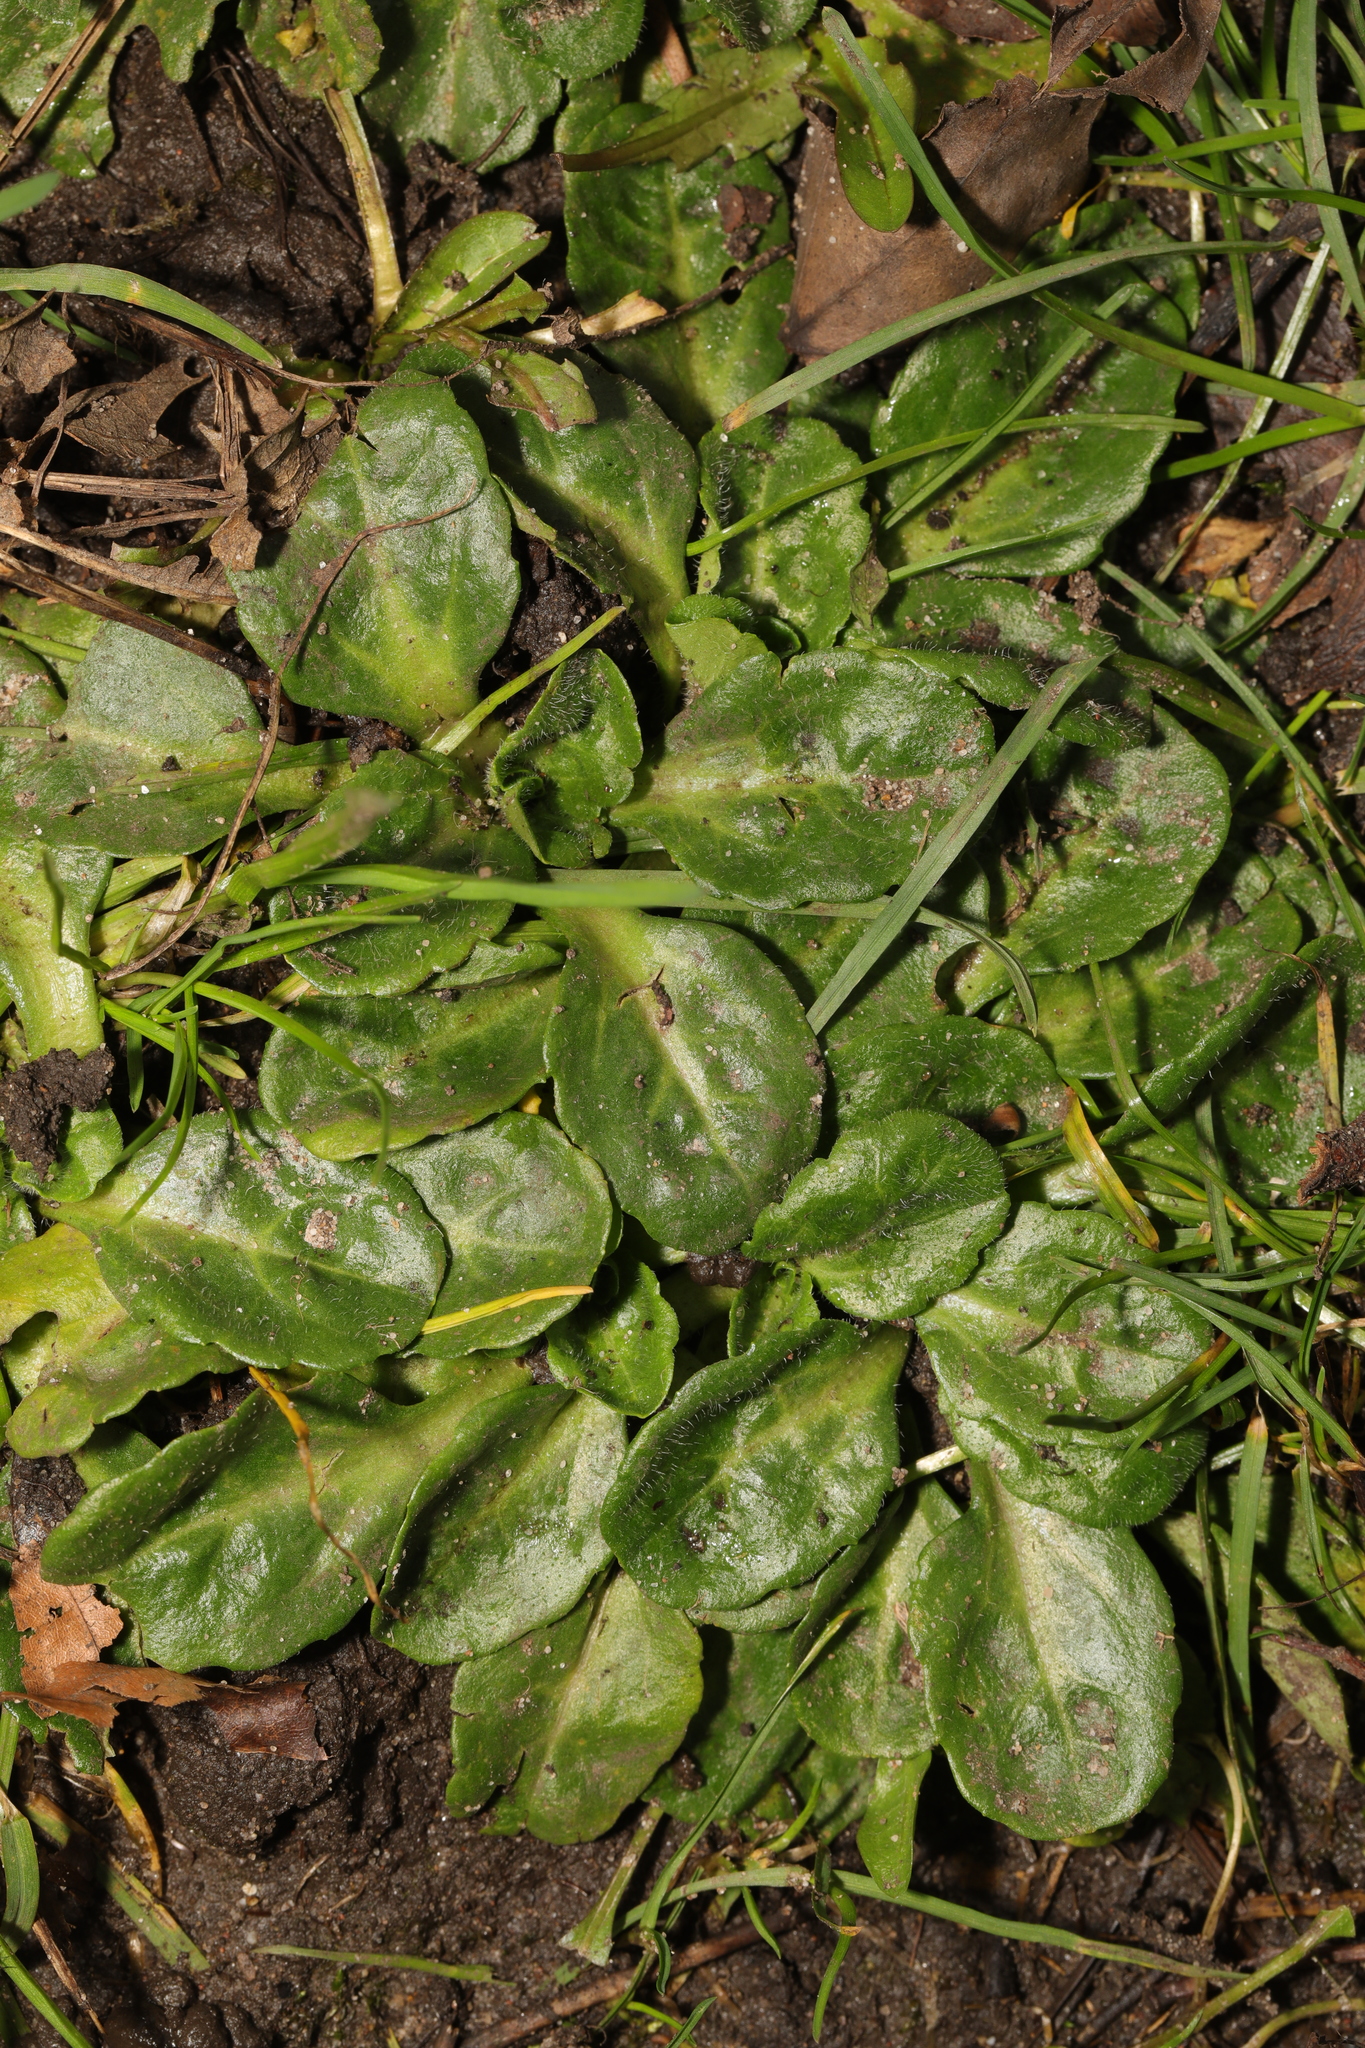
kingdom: Plantae
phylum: Tracheophyta
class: Magnoliopsida
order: Asterales
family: Asteraceae
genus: Bellis
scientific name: Bellis perennis
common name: Lawndaisy
